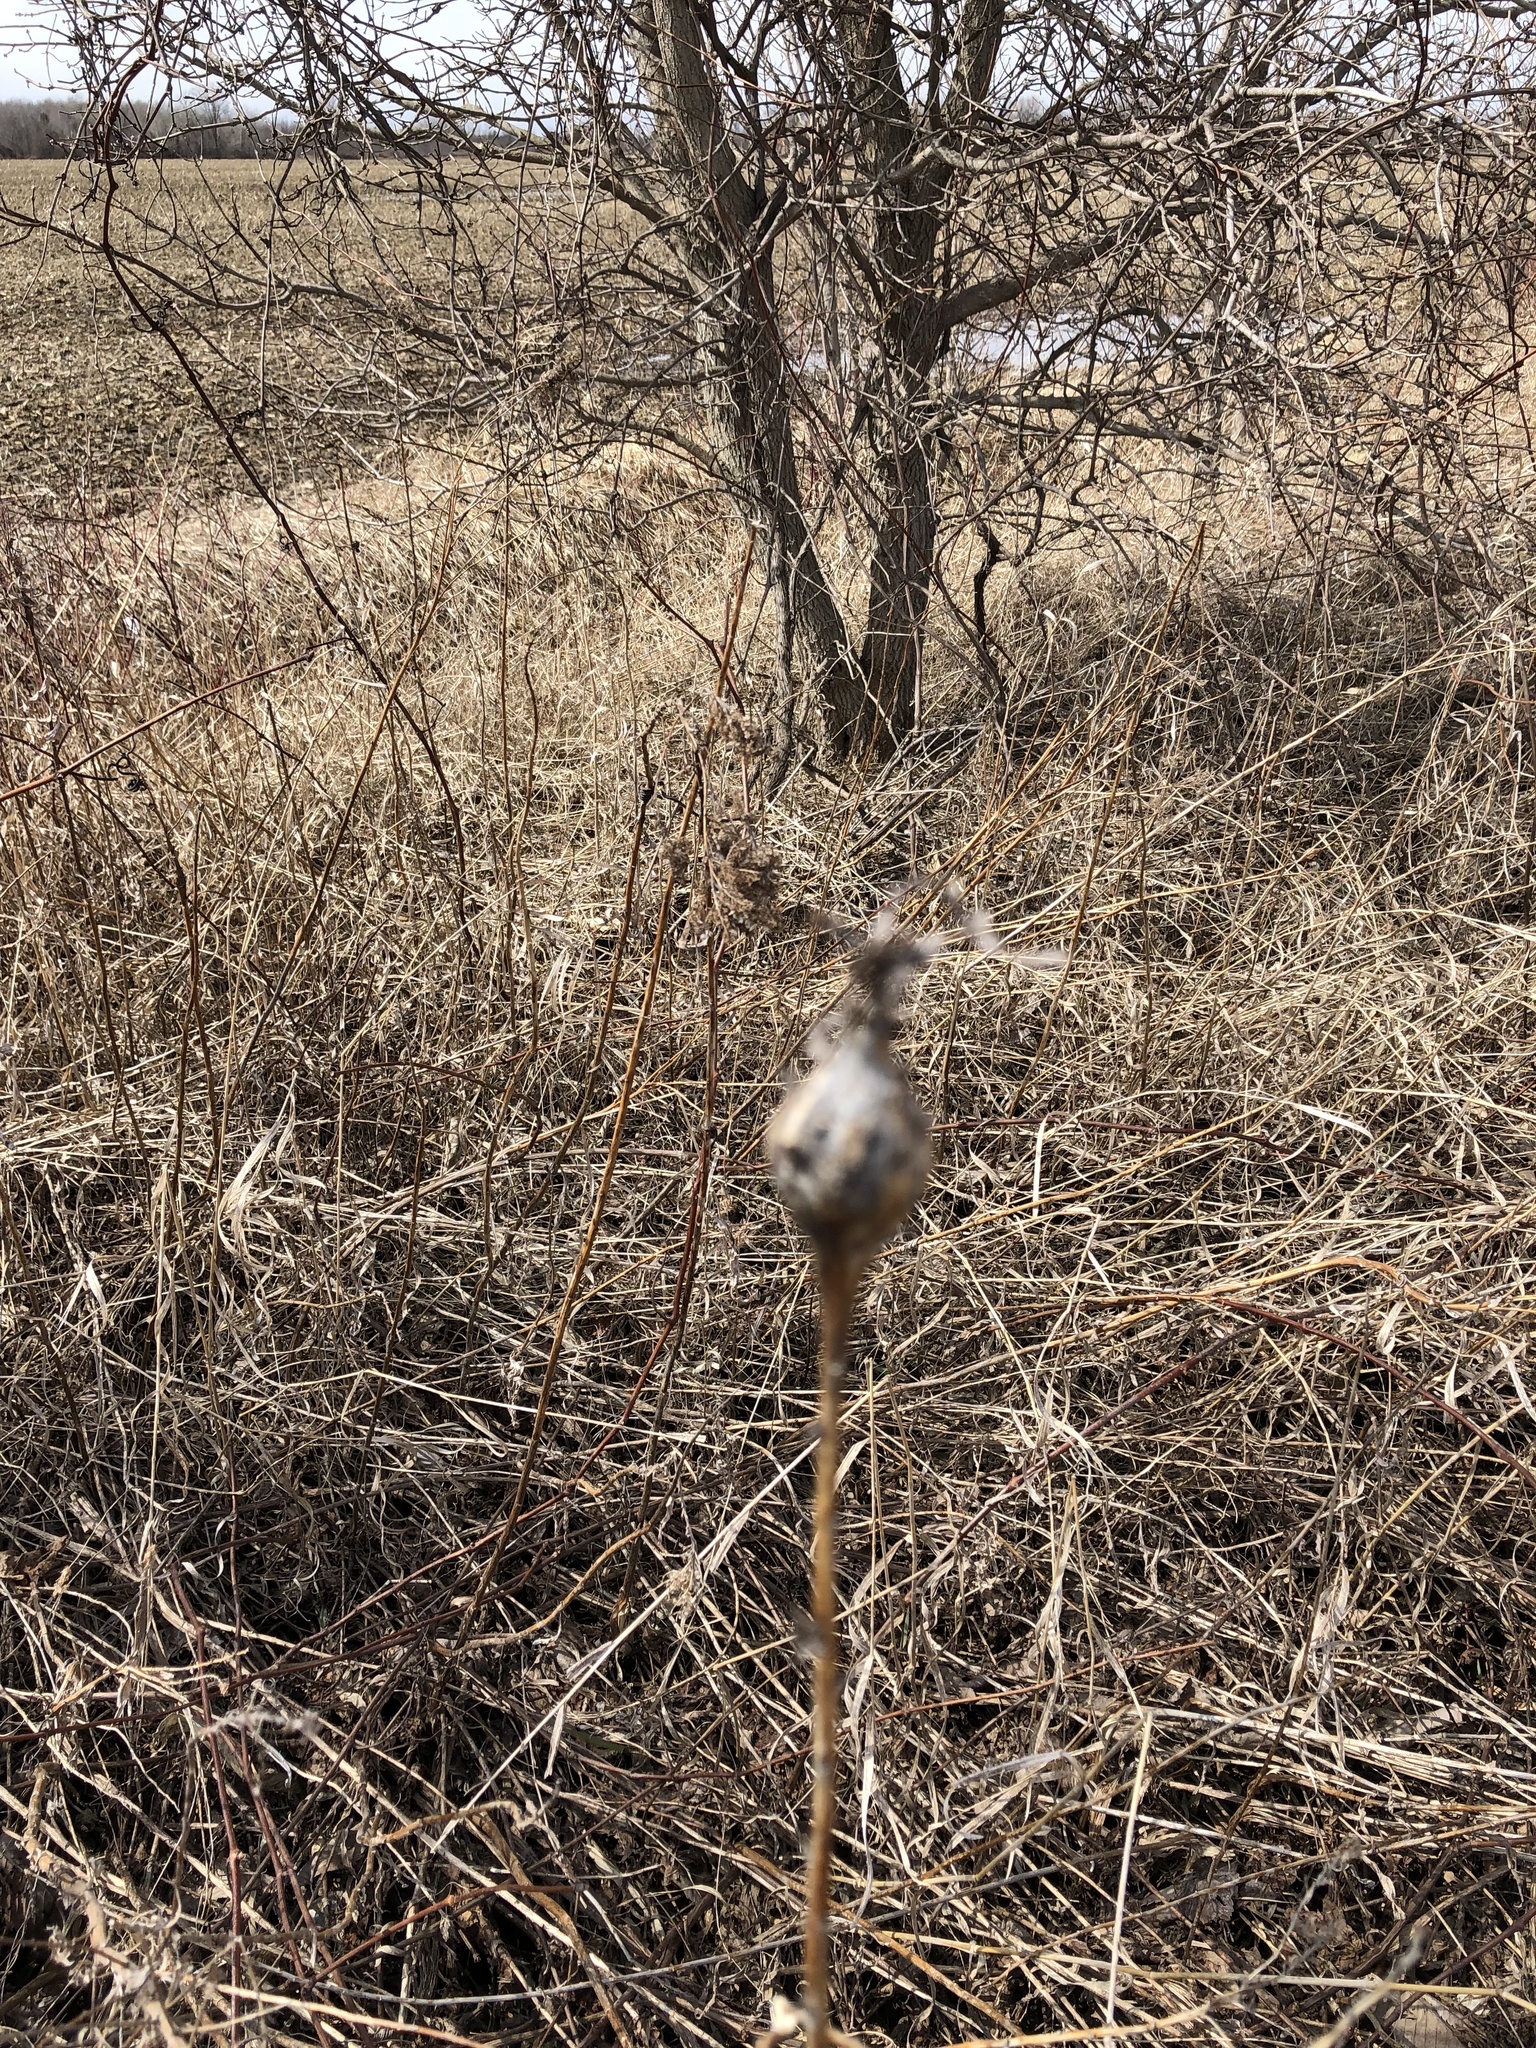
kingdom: Animalia
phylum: Arthropoda
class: Insecta
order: Diptera
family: Tephritidae
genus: Eurosta
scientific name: Eurosta solidaginis
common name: Goldenrod gall fly
